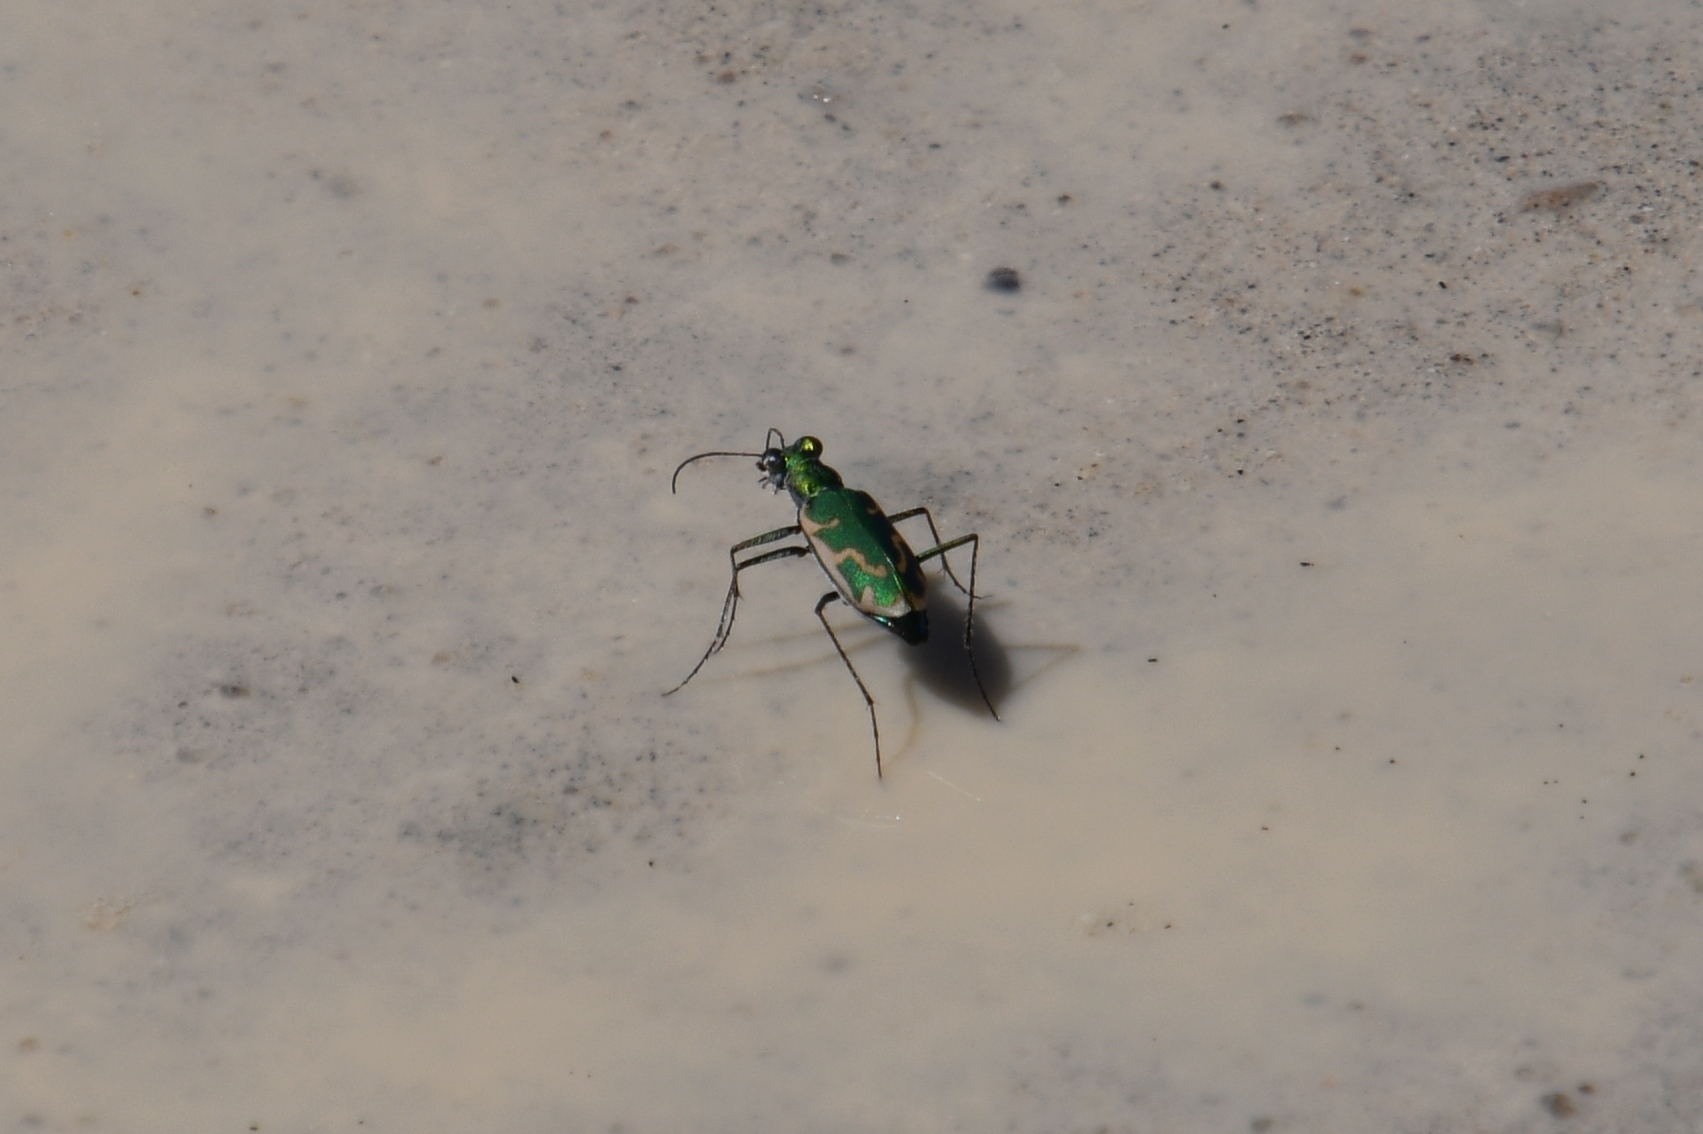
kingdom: Animalia
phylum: Arthropoda
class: Insecta
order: Coleoptera
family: Carabidae
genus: Ellipsoptera
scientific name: Ellipsoptera rubicunda
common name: Aridland tiger beetle
